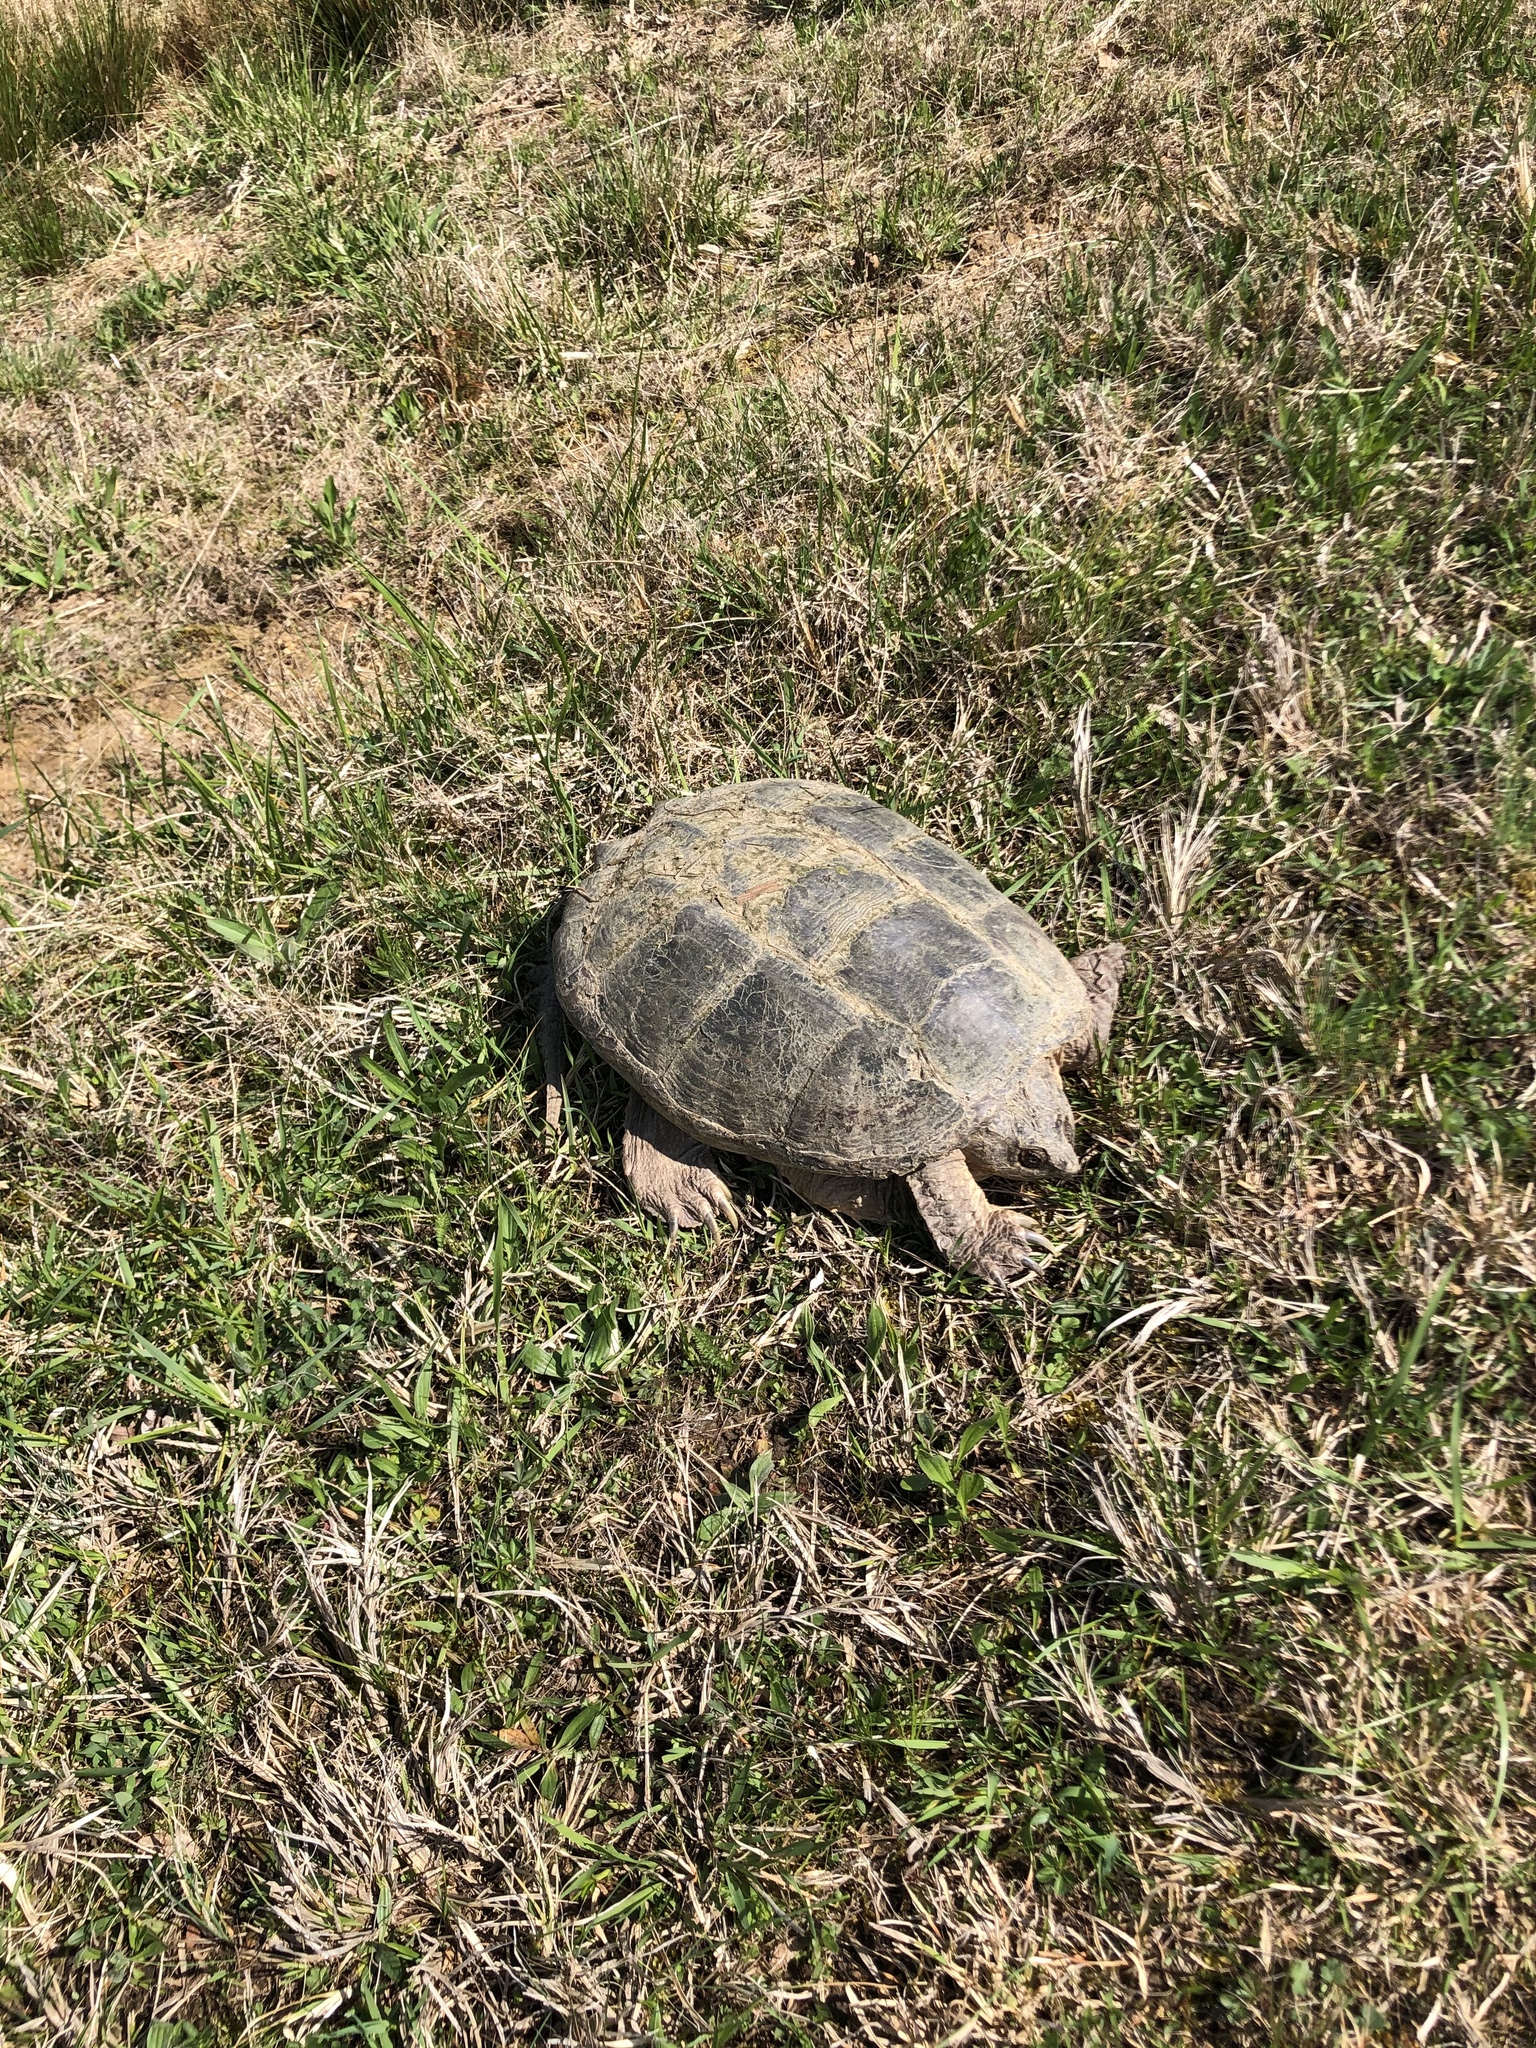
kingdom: Animalia
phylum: Chordata
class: Testudines
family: Chelydridae
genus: Chelydra
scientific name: Chelydra serpentina
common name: Common snapping turtle
